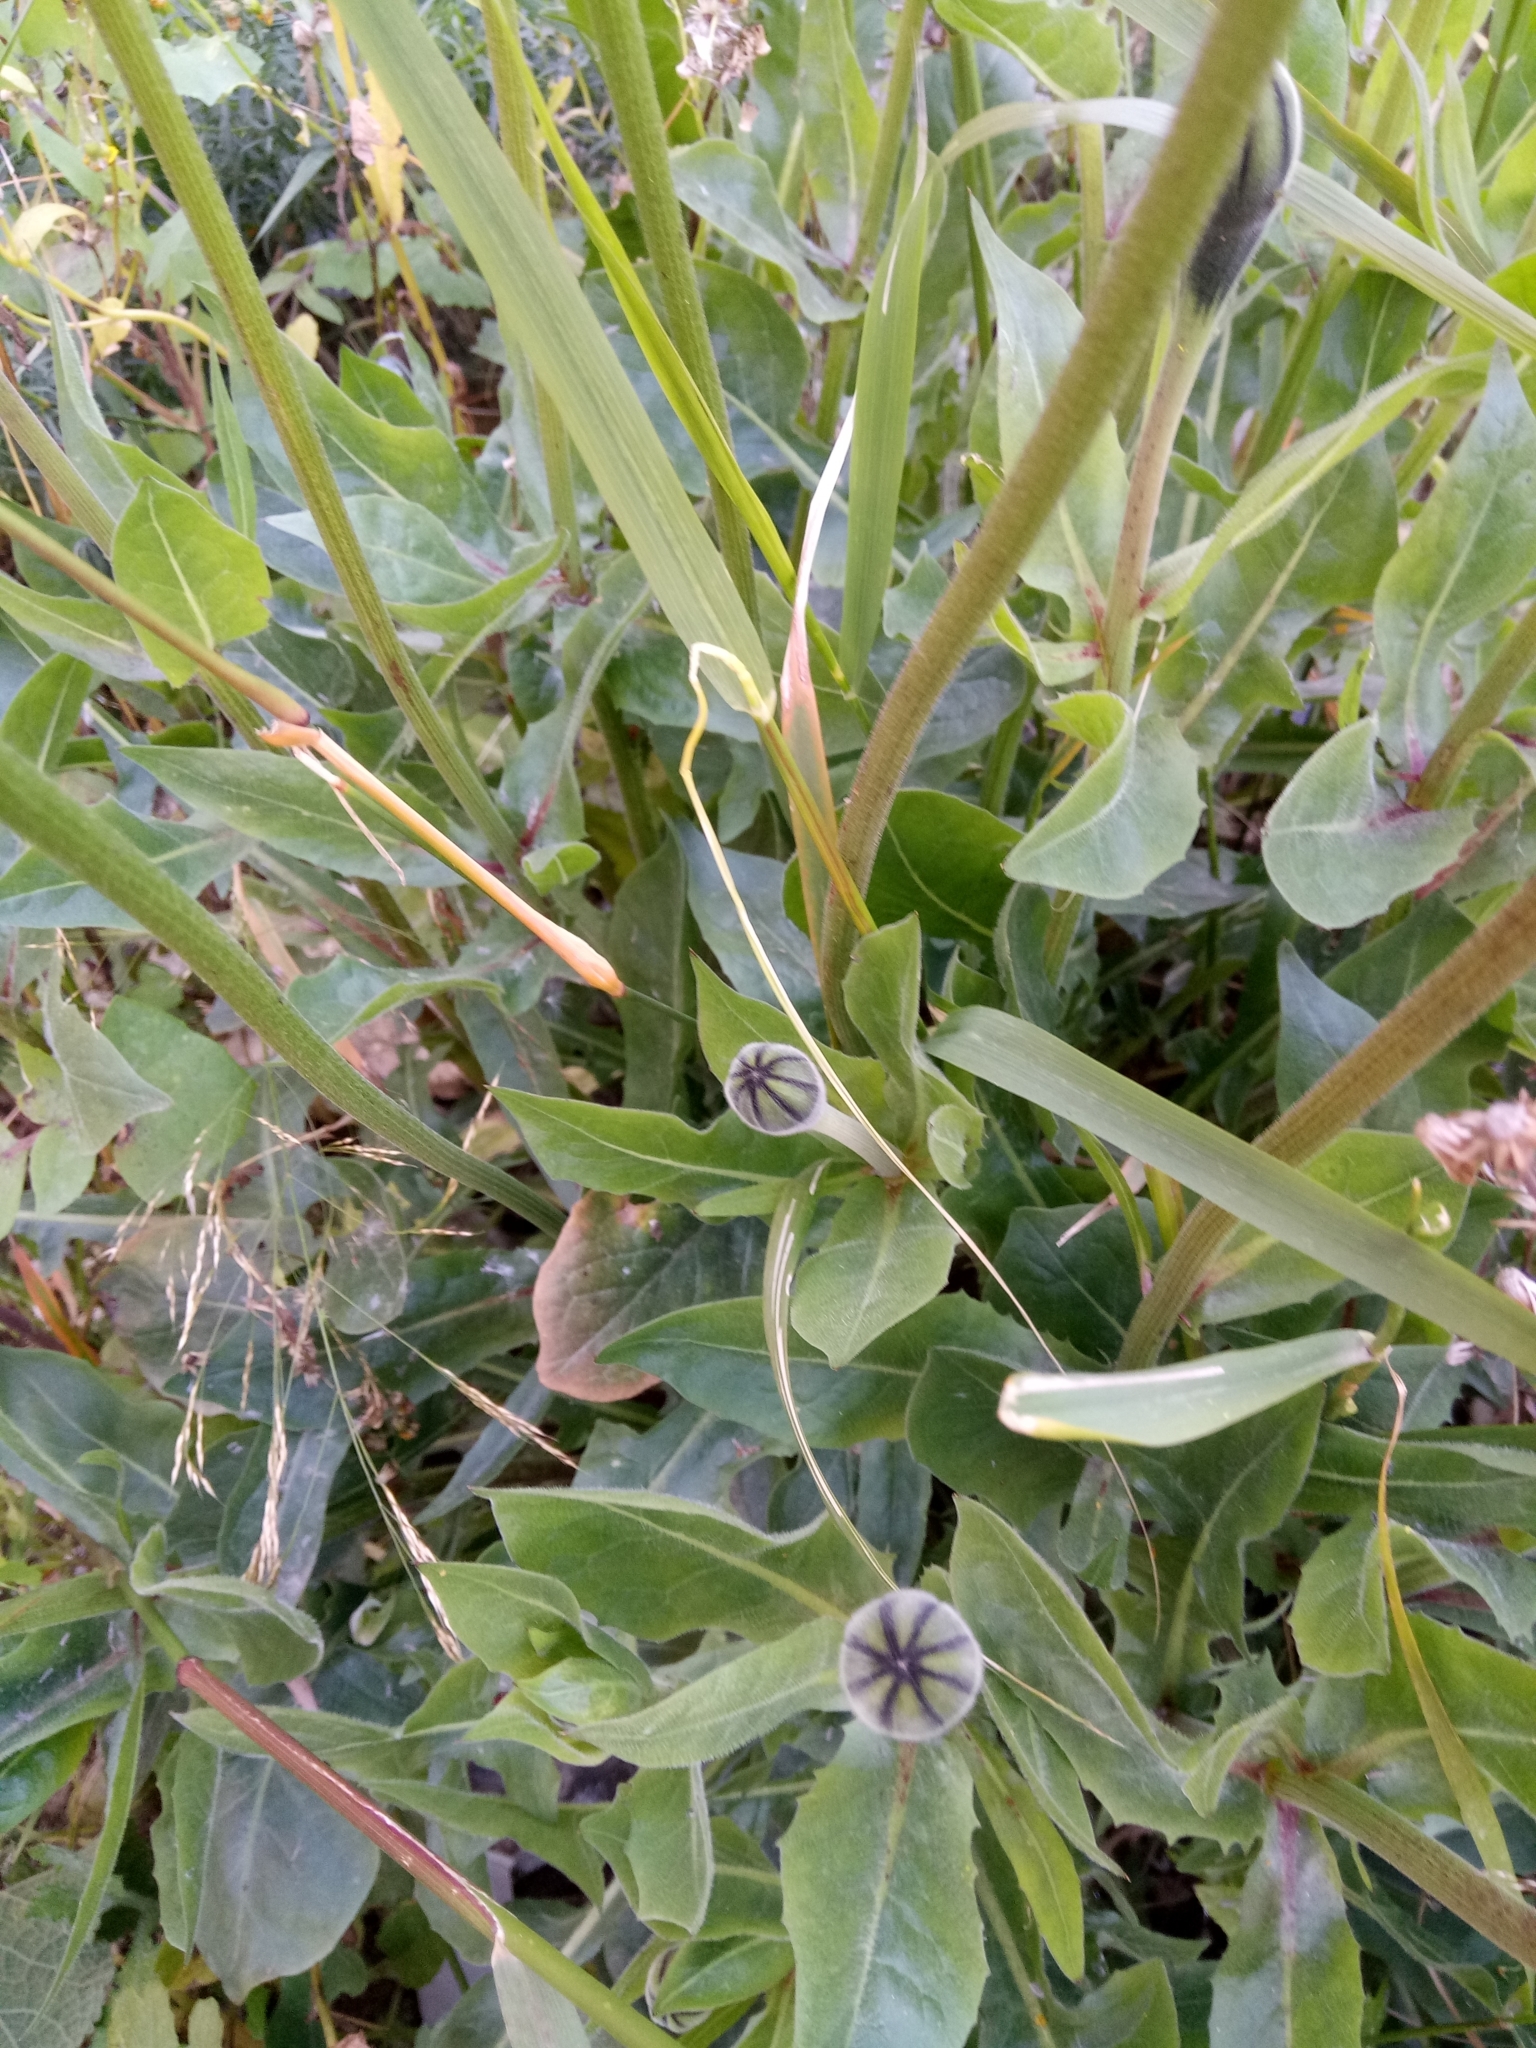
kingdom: Plantae
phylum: Tracheophyta
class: Magnoliopsida
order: Asterales
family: Asteraceae
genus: Urospermum
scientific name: Urospermum dalechampii
